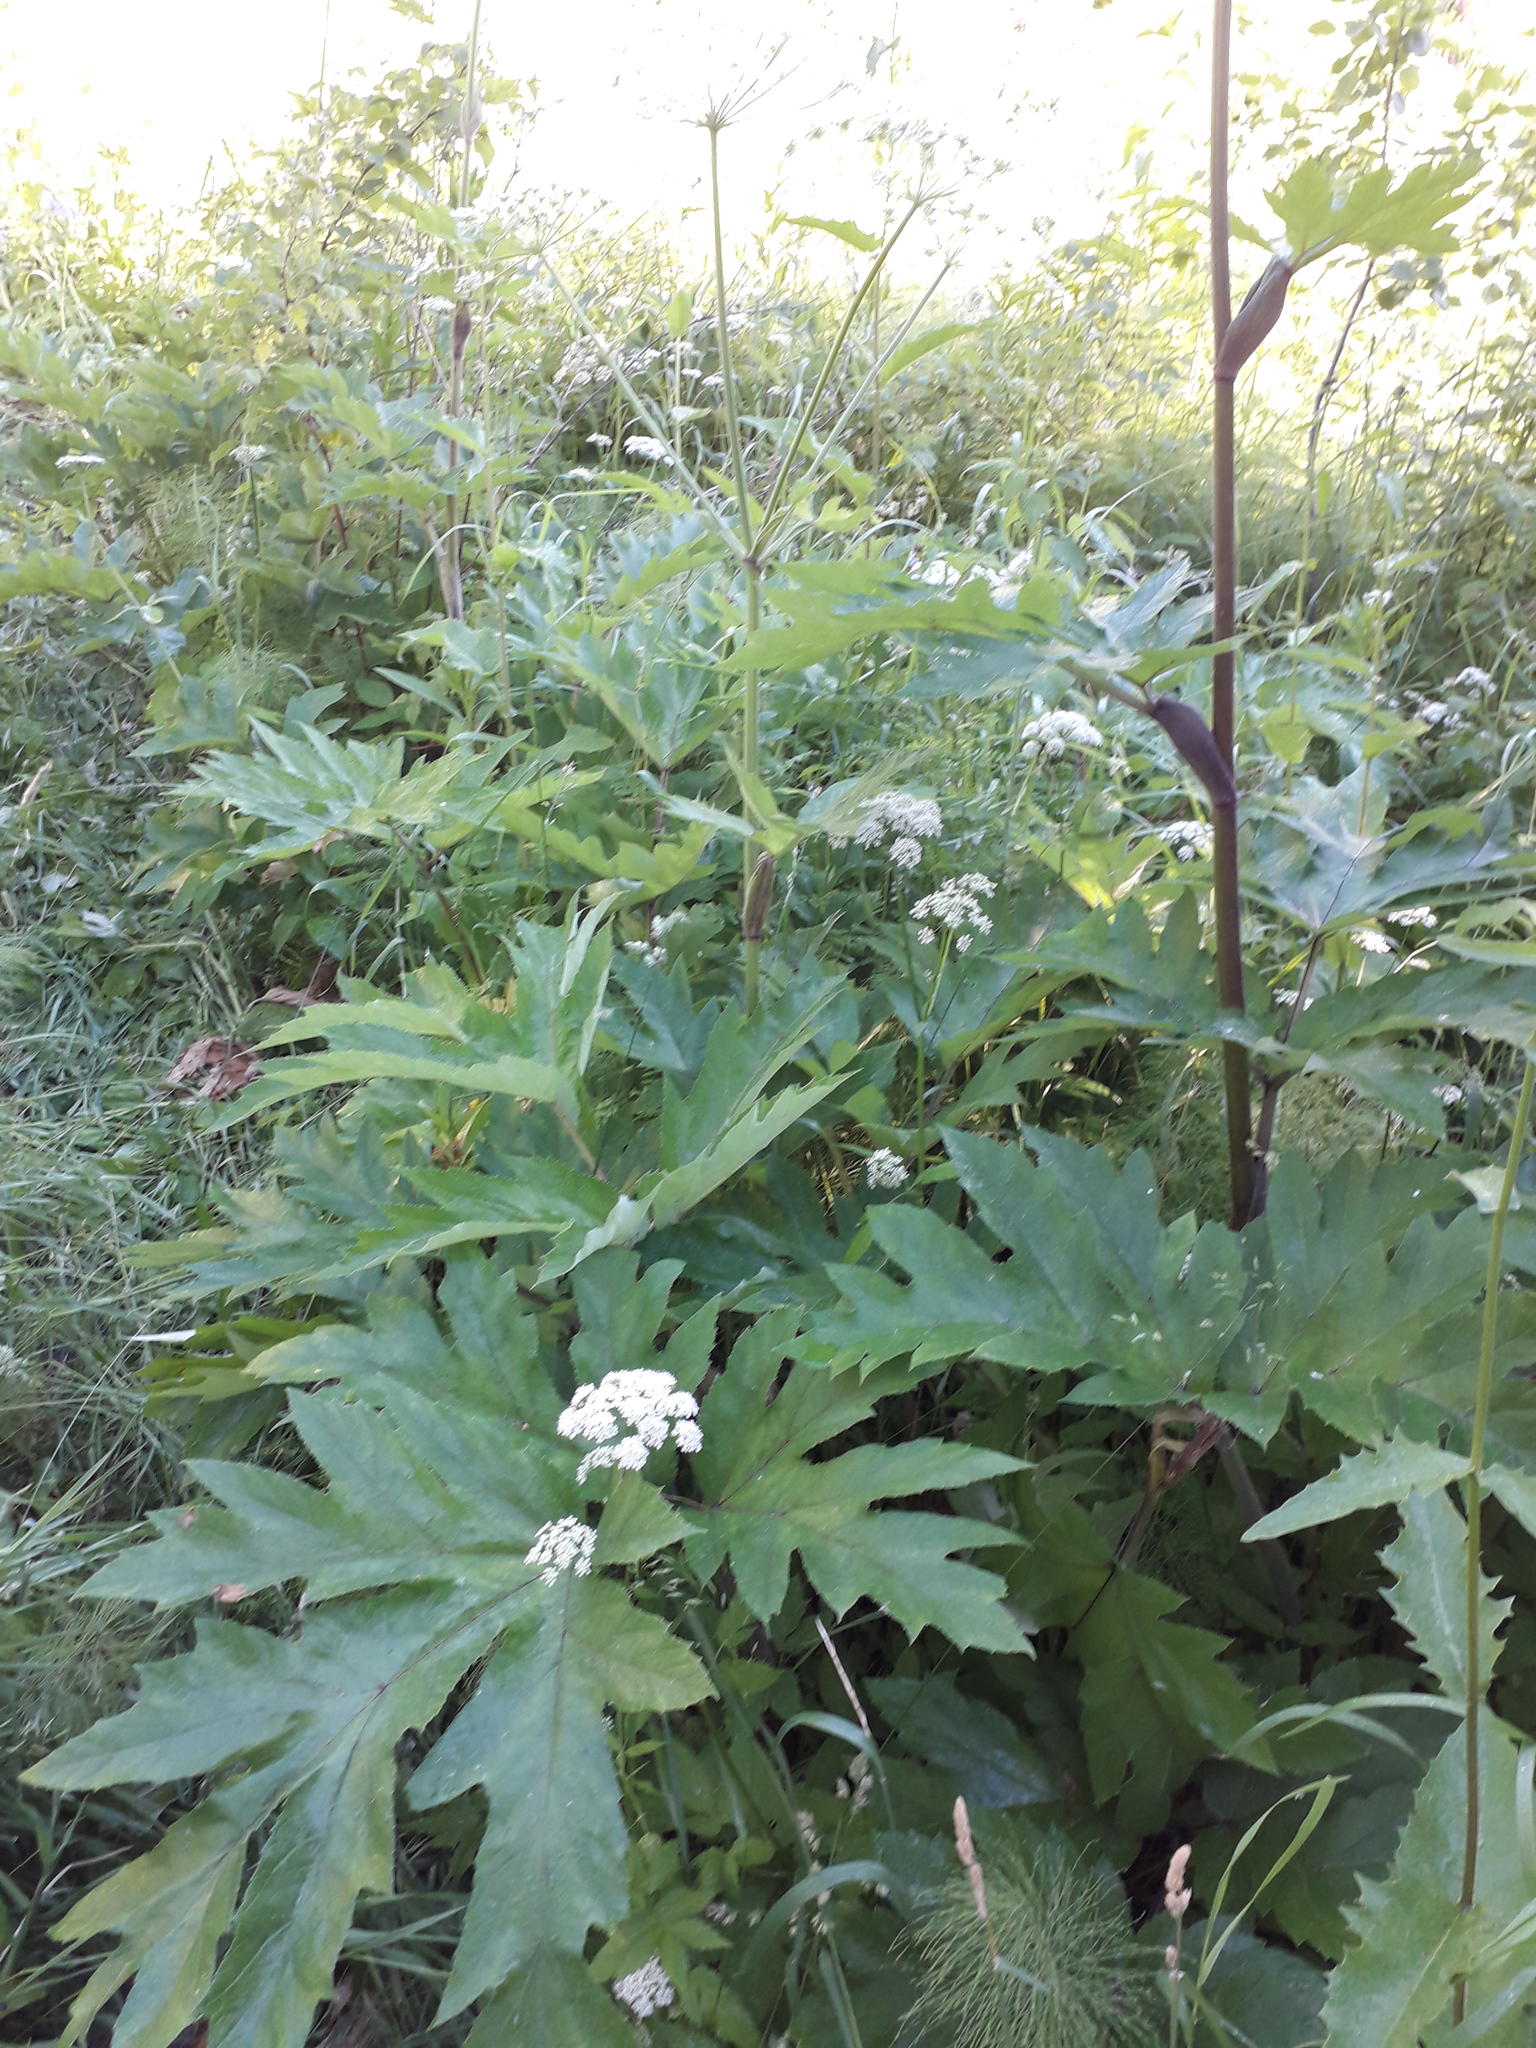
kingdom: Plantae
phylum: Tracheophyta
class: Magnoliopsida
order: Apiales
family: Apiaceae
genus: Heracleum
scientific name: Heracleum dissectum
